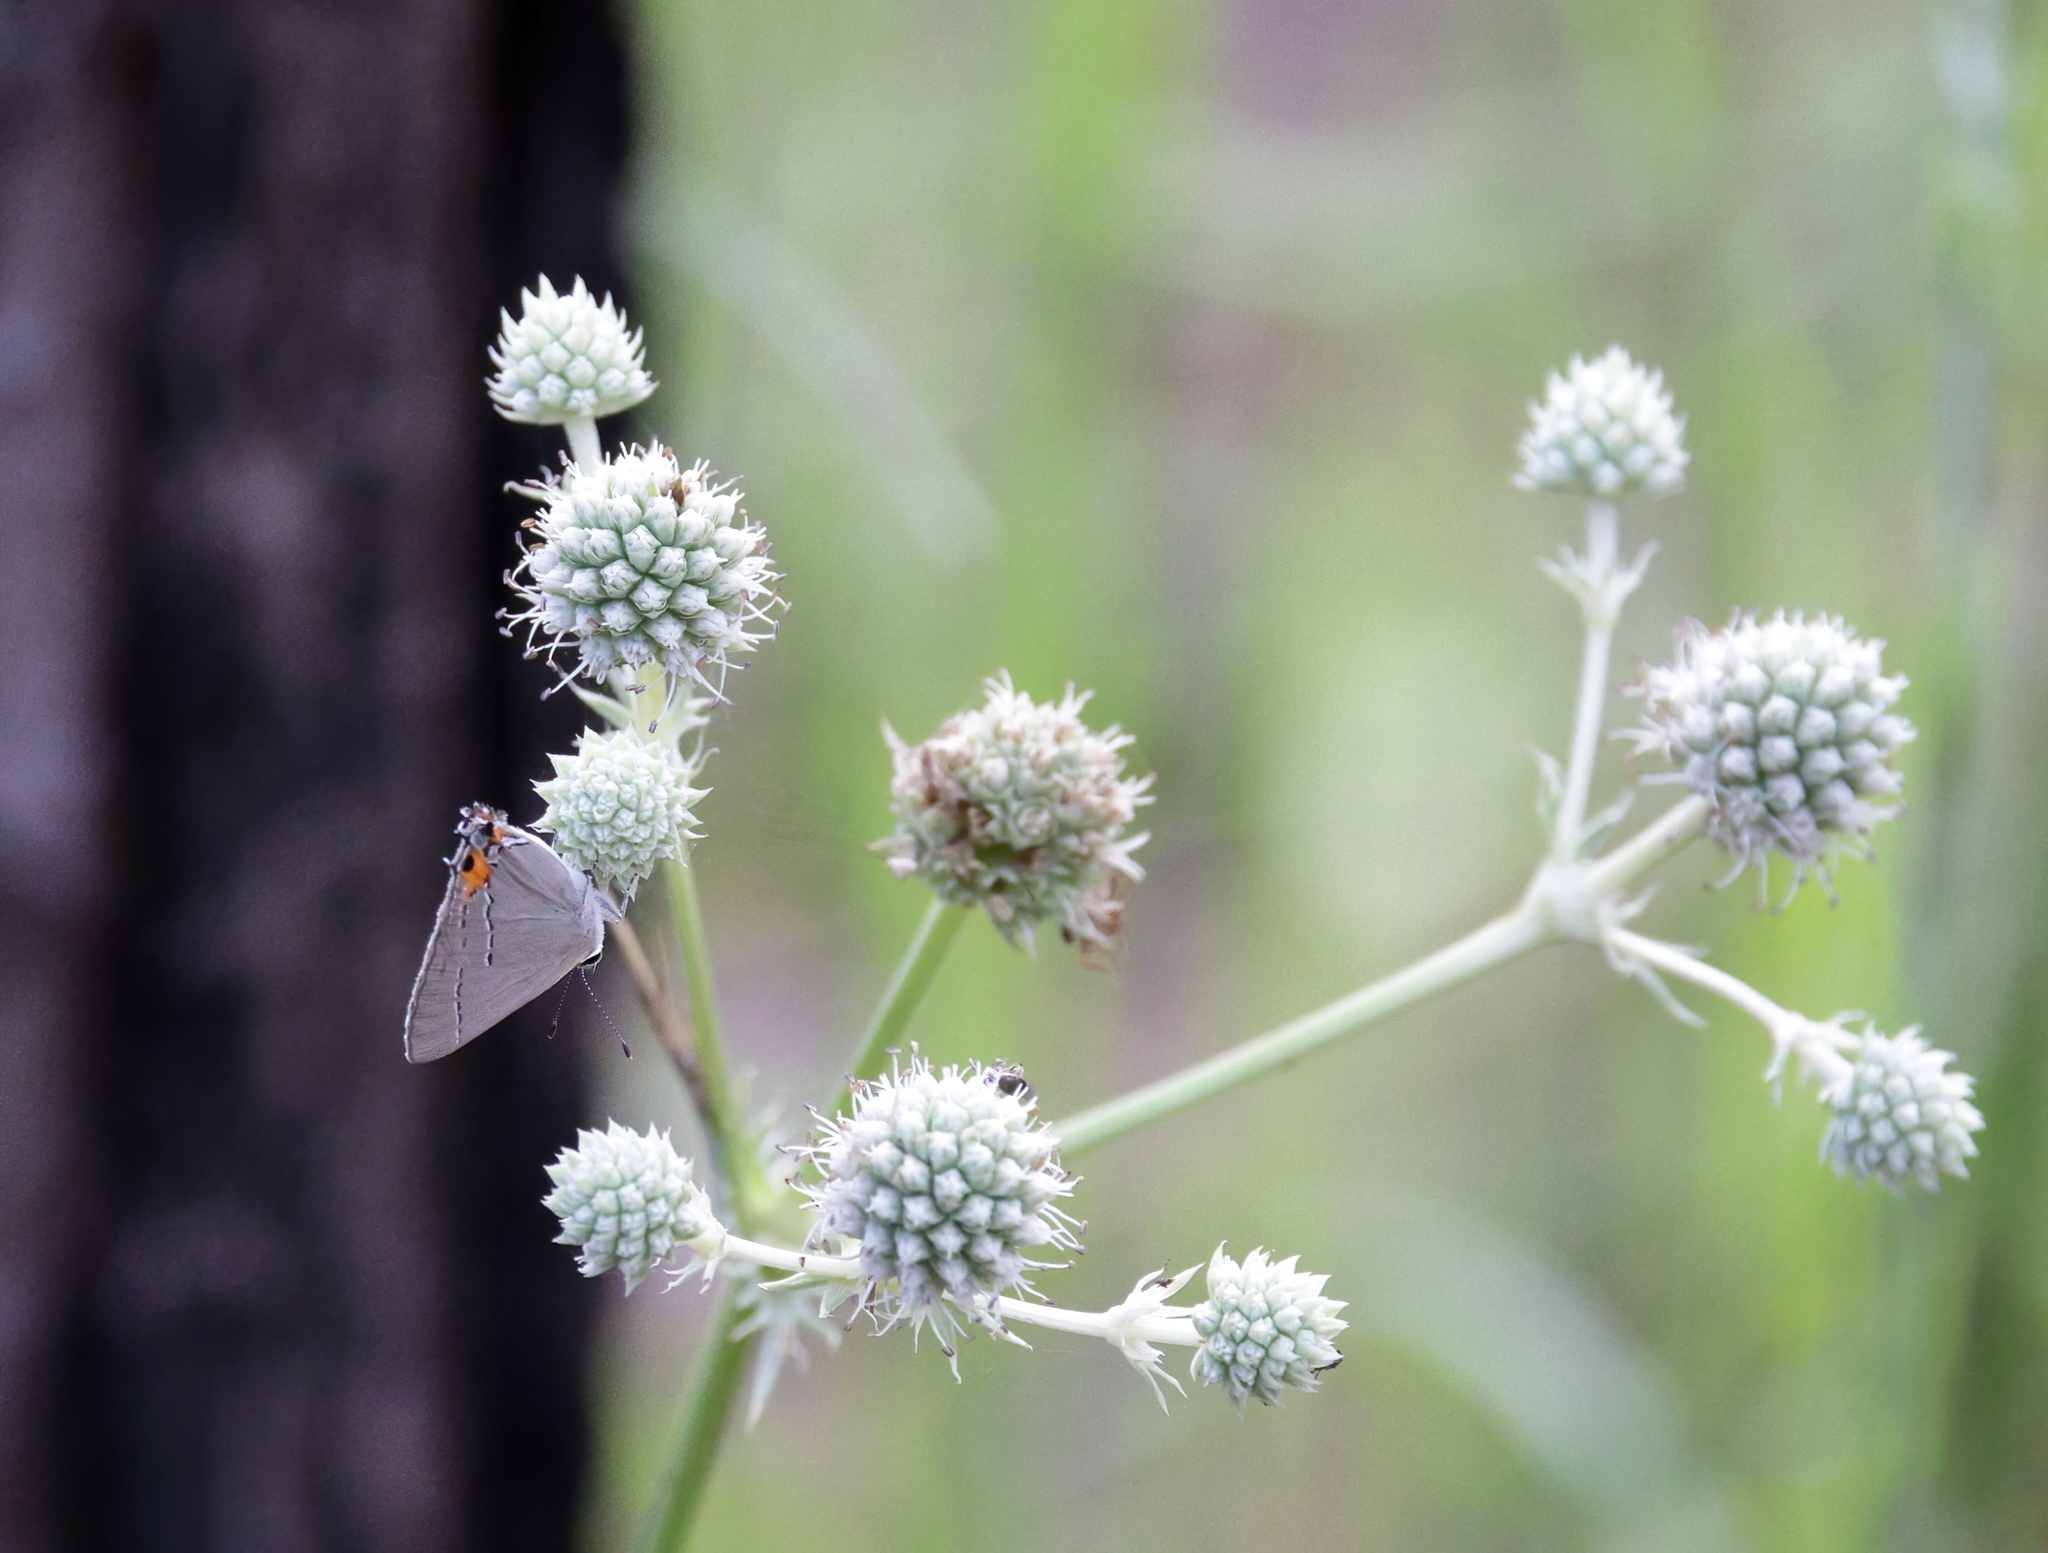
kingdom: Animalia
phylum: Arthropoda
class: Insecta
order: Lepidoptera
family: Lycaenidae
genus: Strymon
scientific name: Strymon melinus
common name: Gray hairstreak
